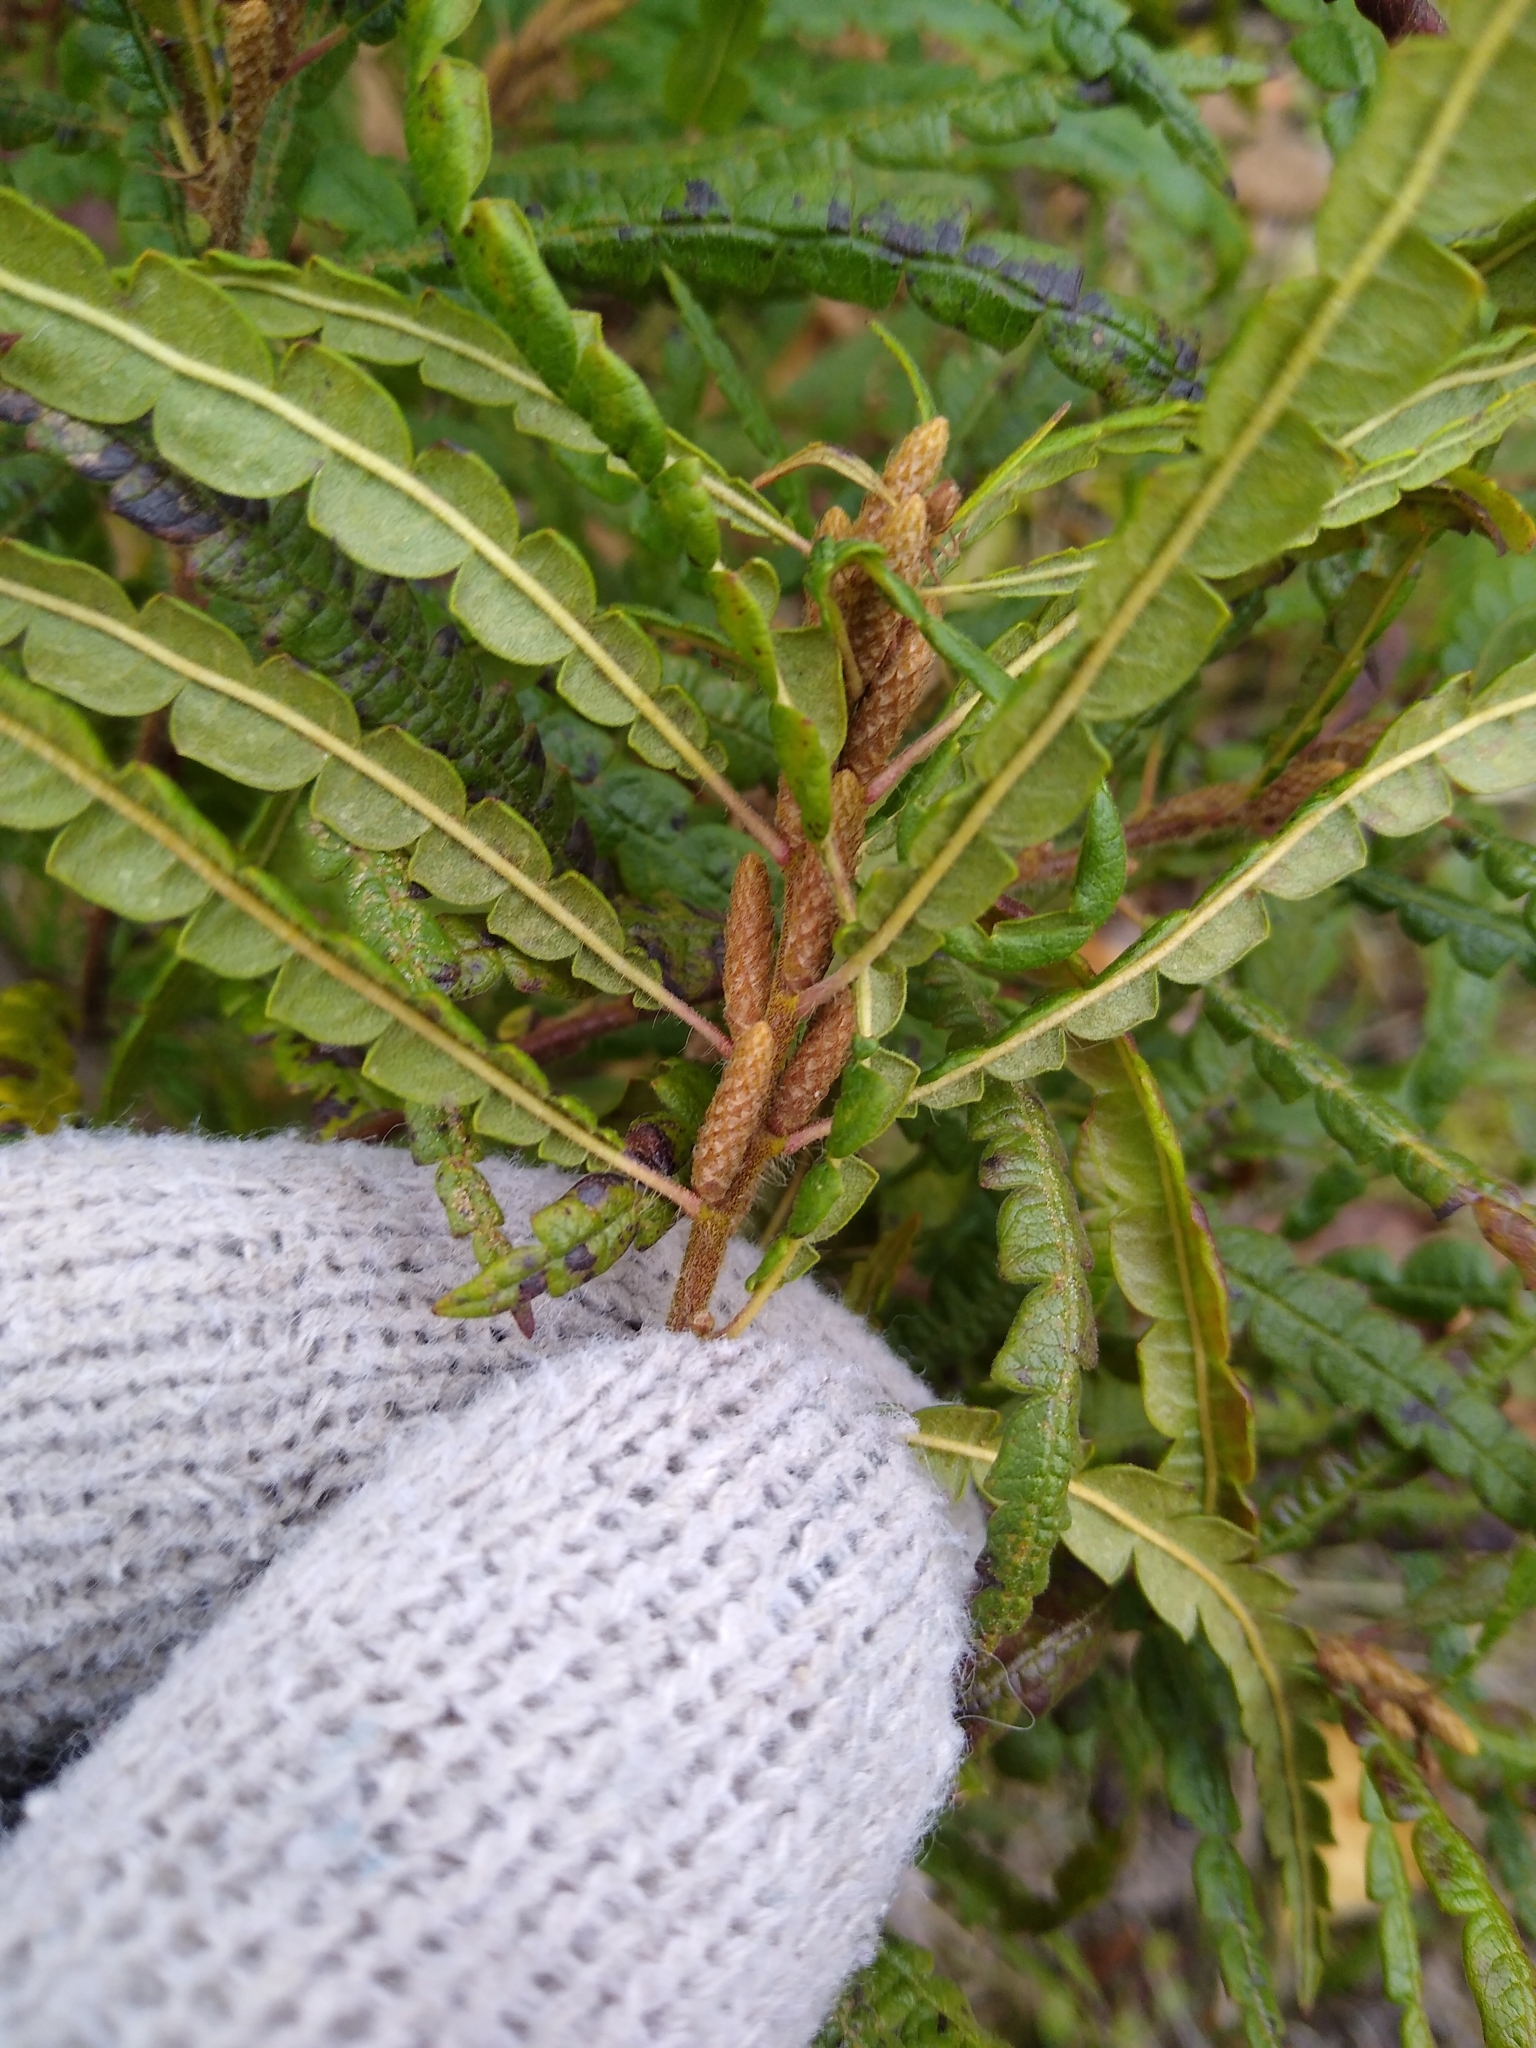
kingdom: Plantae
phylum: Tracheophyta
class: Magnoliopsida
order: Fagales
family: Myricaceae
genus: Comptonia
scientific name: Comptonia peregrina
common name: Sweet-fern
